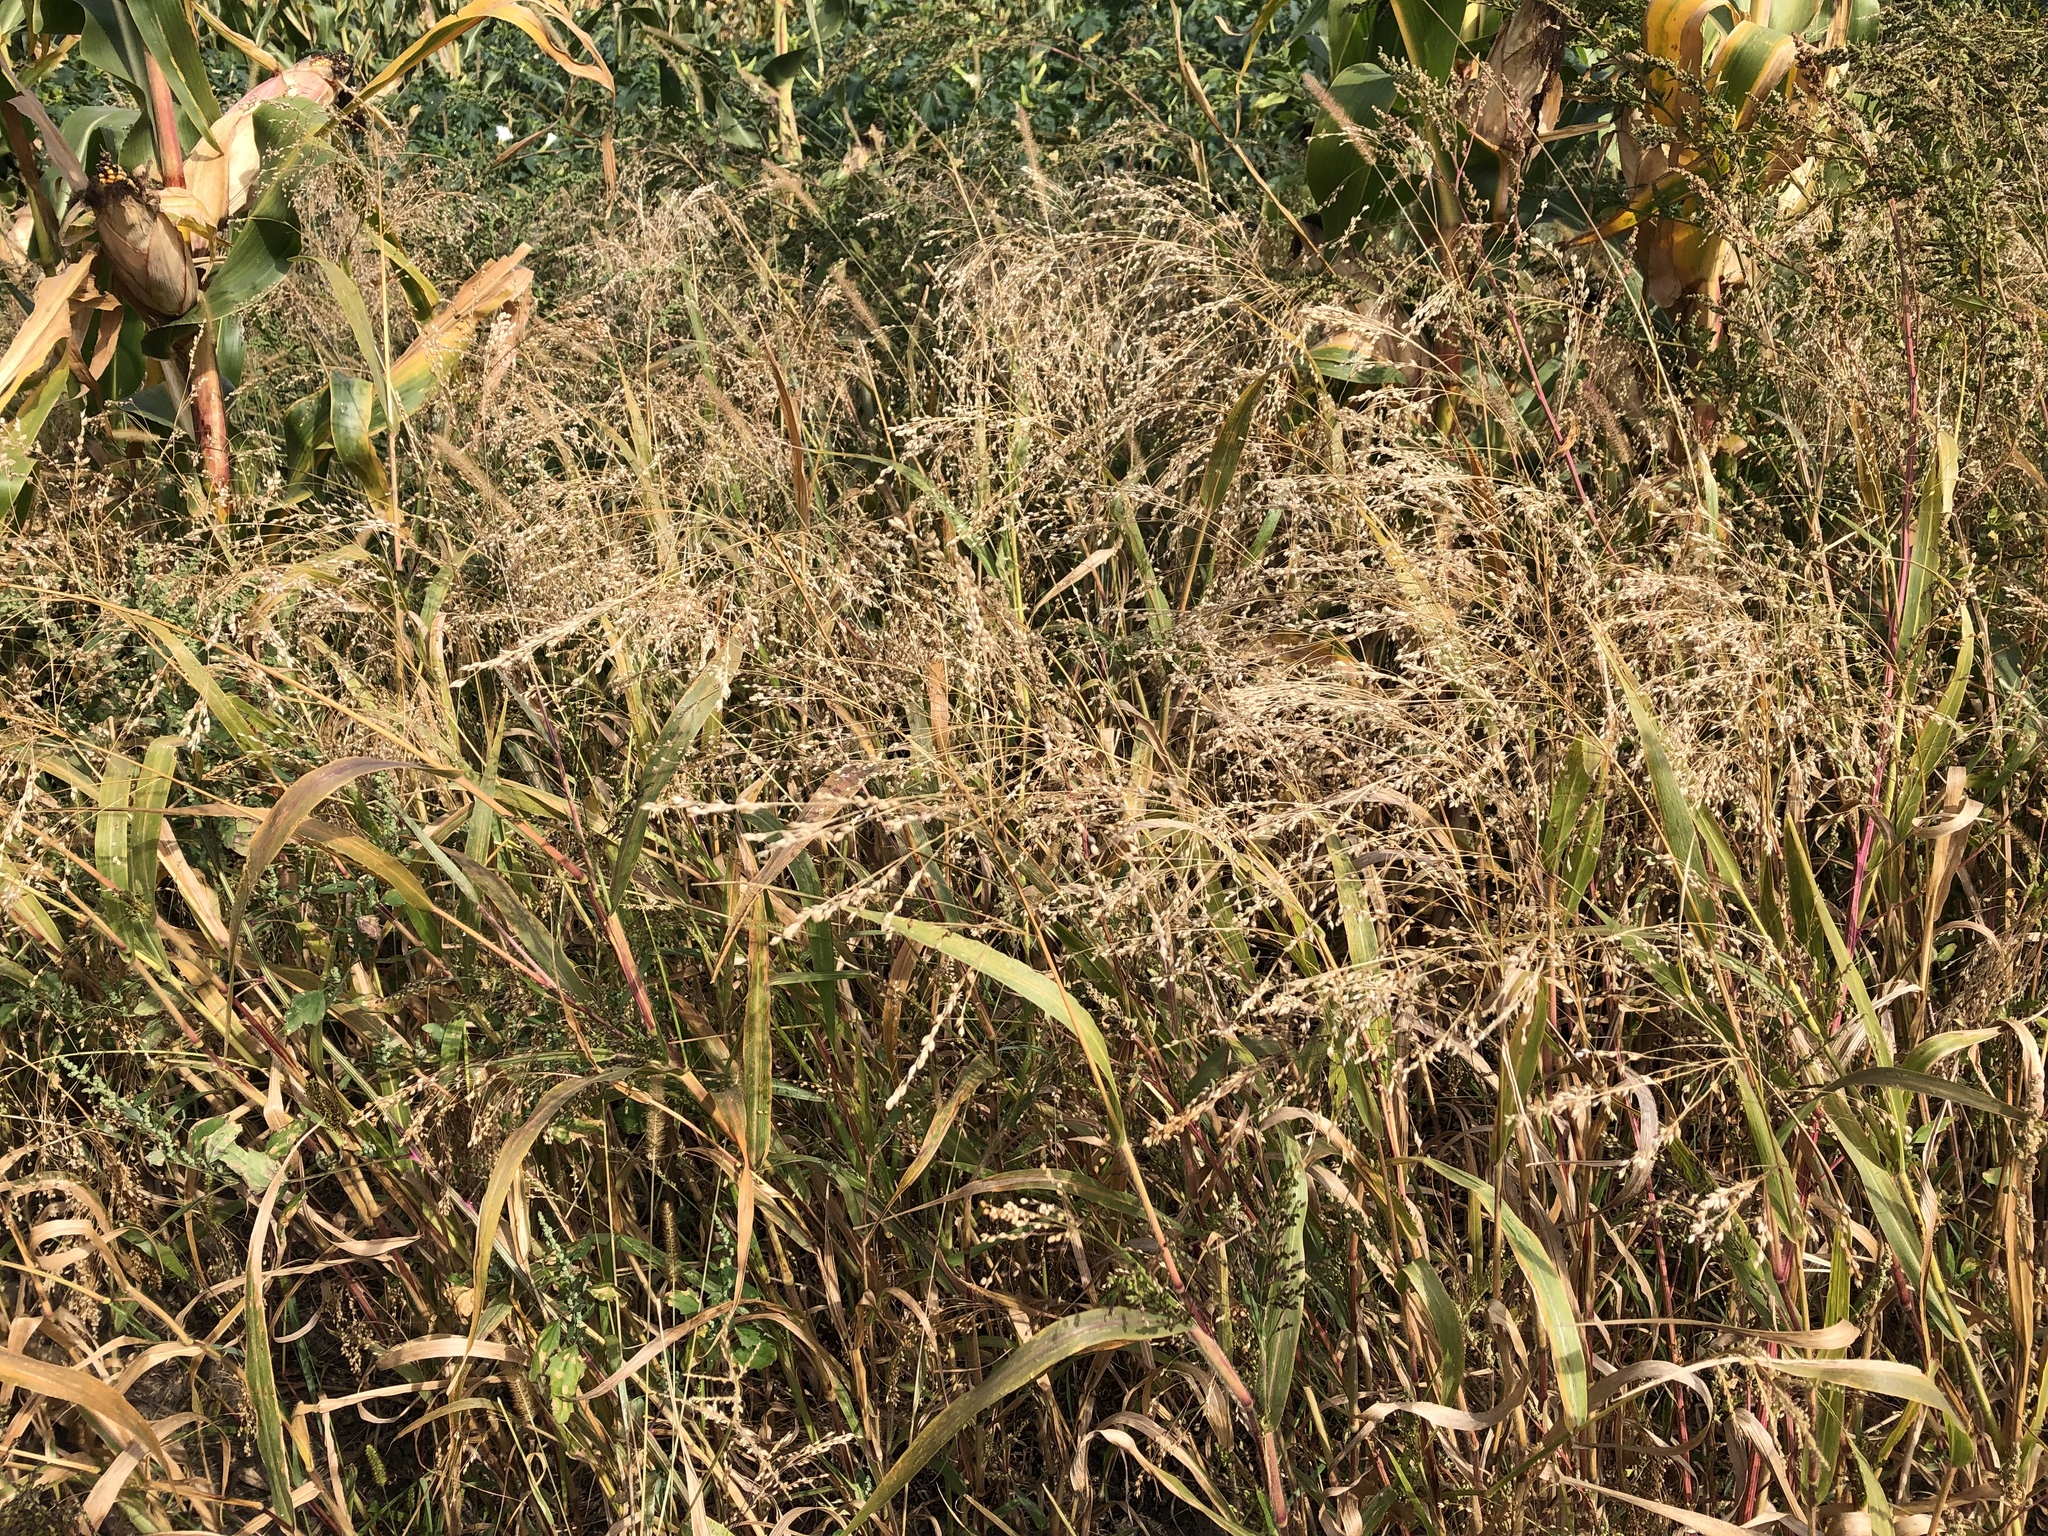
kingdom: Plantae
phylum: Tracheophyta
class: Liliopsida
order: Poales
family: Poaceae
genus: Panicum
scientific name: Panicum miliaceum
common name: Common millet
